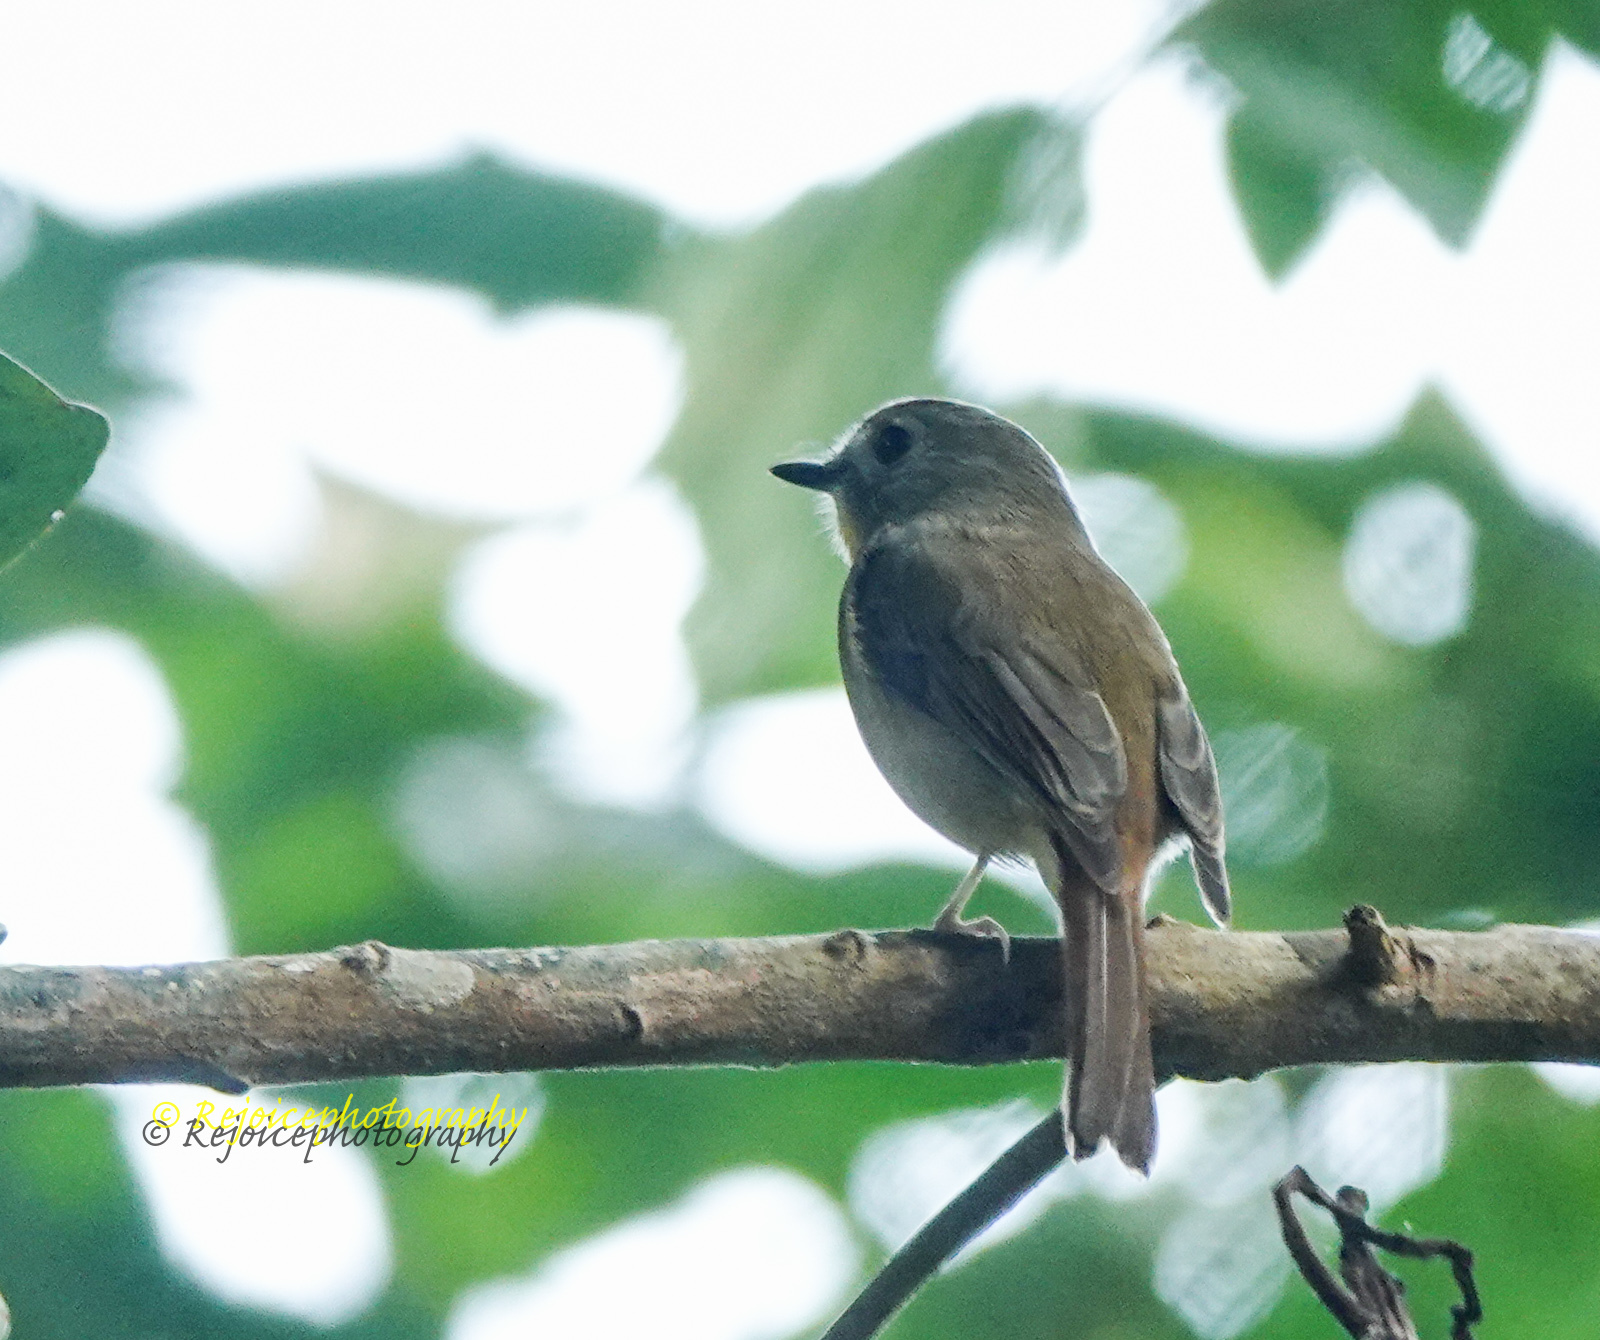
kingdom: Animalia
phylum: Chordata
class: Aves
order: Passeriformes
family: Muscicapidae
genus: Cyornis
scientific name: Cyornis poliogenys
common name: Pale-chinned blue flycatcher
